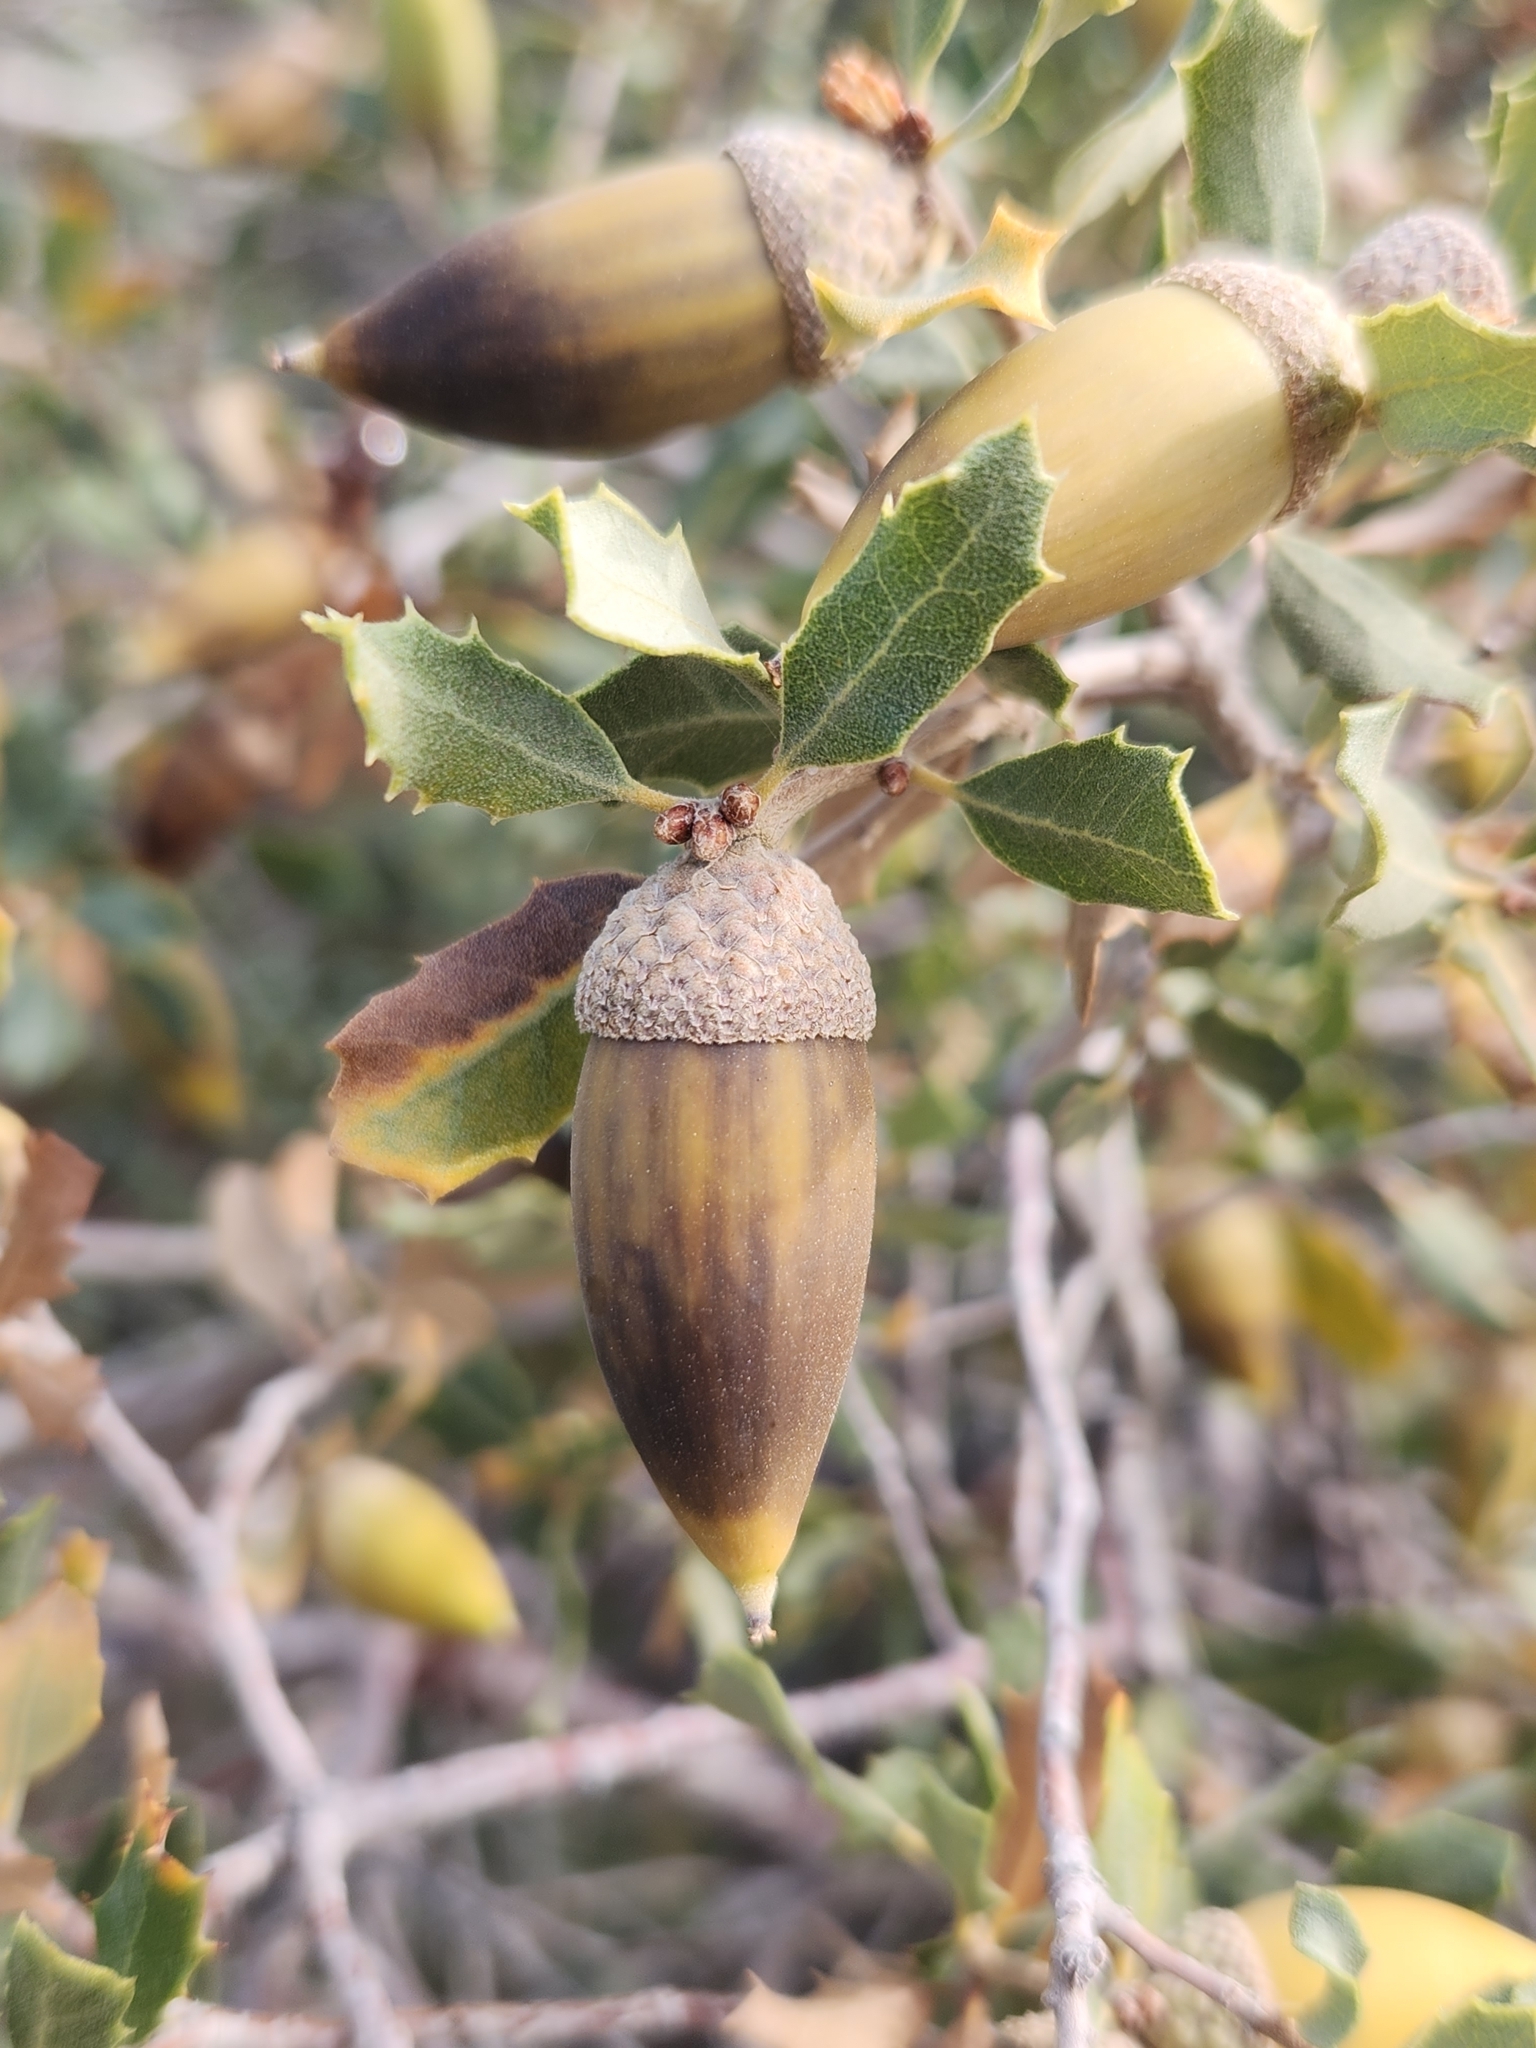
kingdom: Plantae
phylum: Tracheophyta
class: Magnoliopsida
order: Fagales
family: Fagaceae
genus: Quercus
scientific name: Quercus cornelius-mulleri
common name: Muller oak
